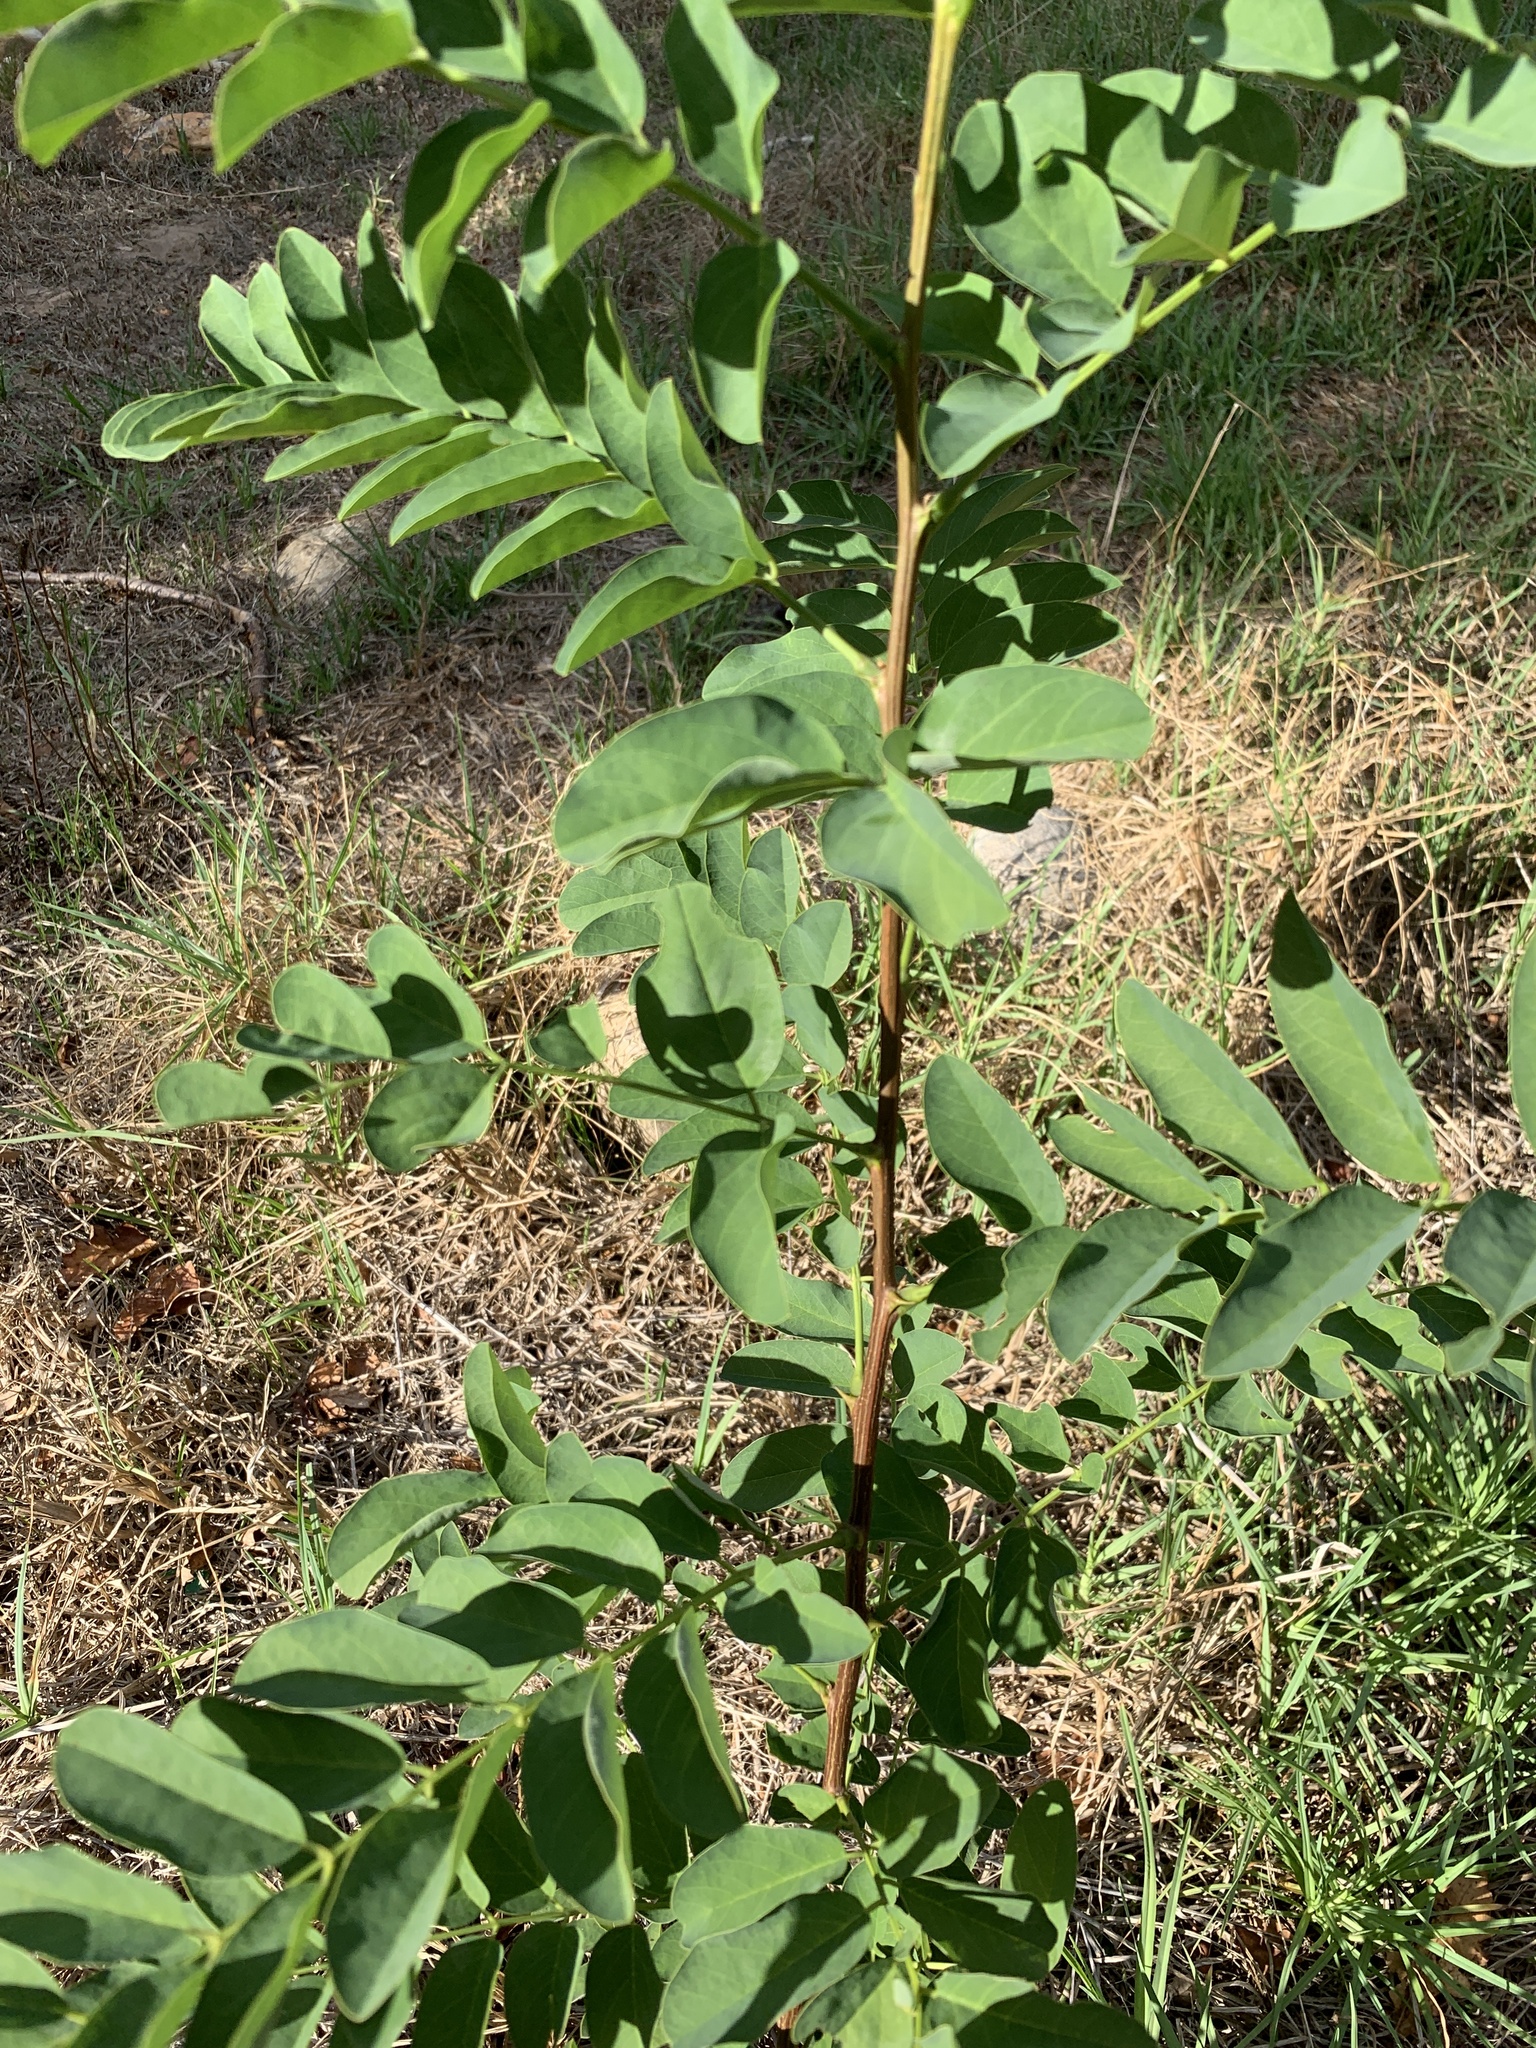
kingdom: Plantae
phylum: Tracheophyta
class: Magnoliopsida
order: Fabales
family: Fabaceae
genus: Robinia
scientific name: Robinia pseudoacacia
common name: Black locust
